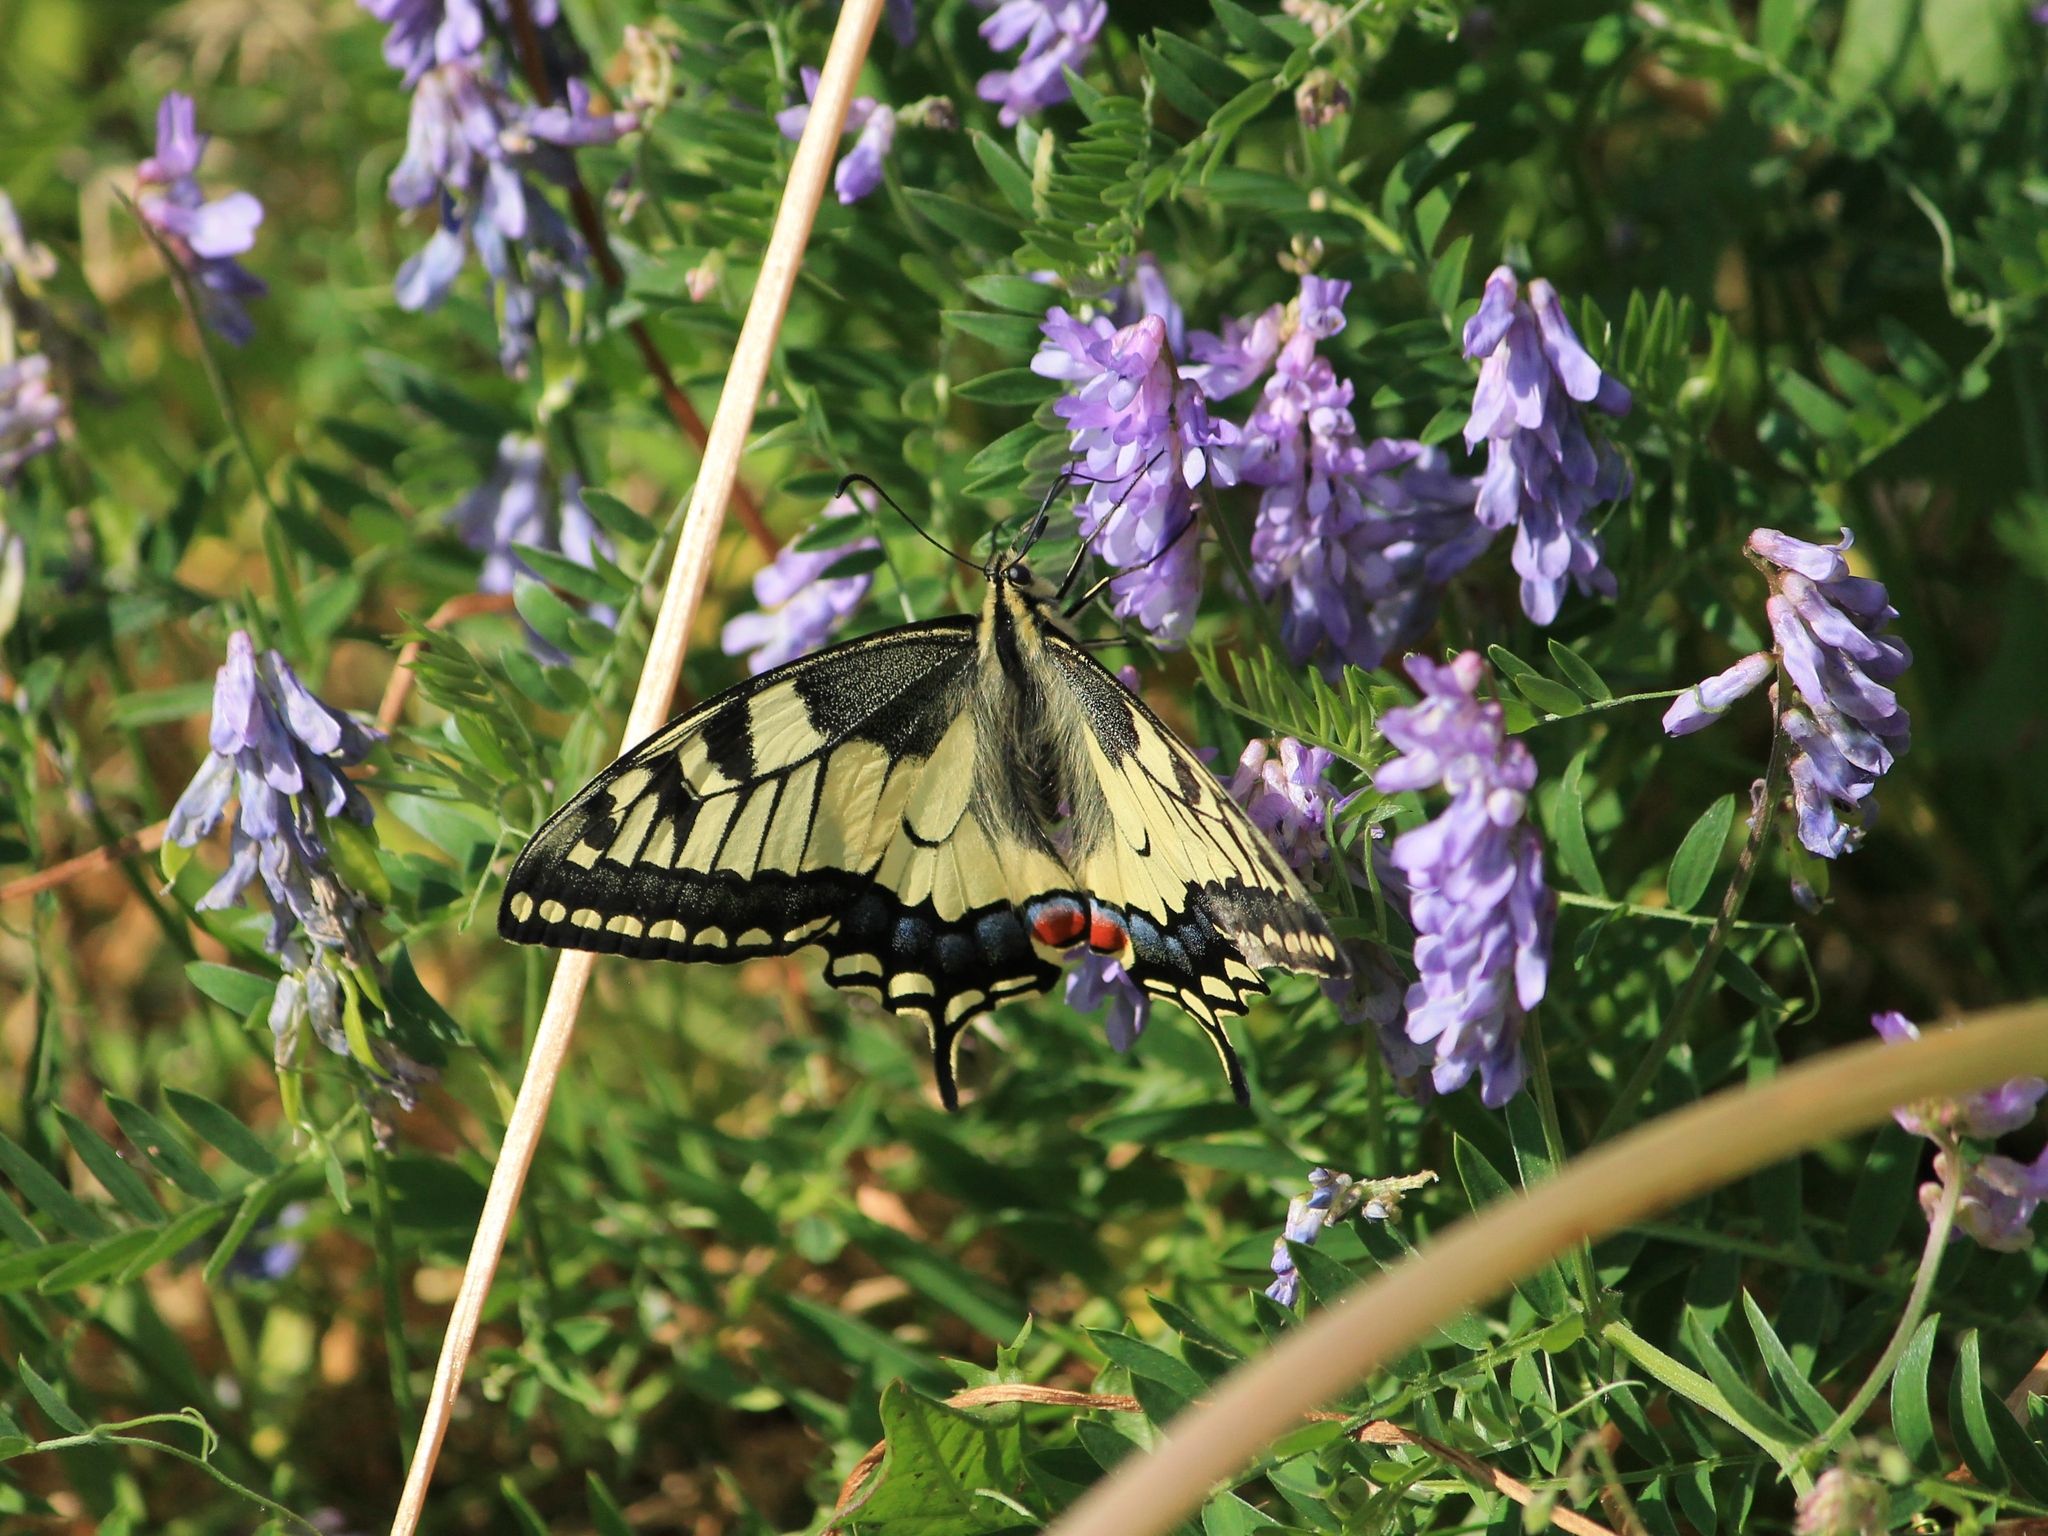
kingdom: Animalia
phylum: Arthropoda
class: Insecta
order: Lepidoptera
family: Papilionidae
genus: Papilio
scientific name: Papilio machaon
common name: Swallowtail
